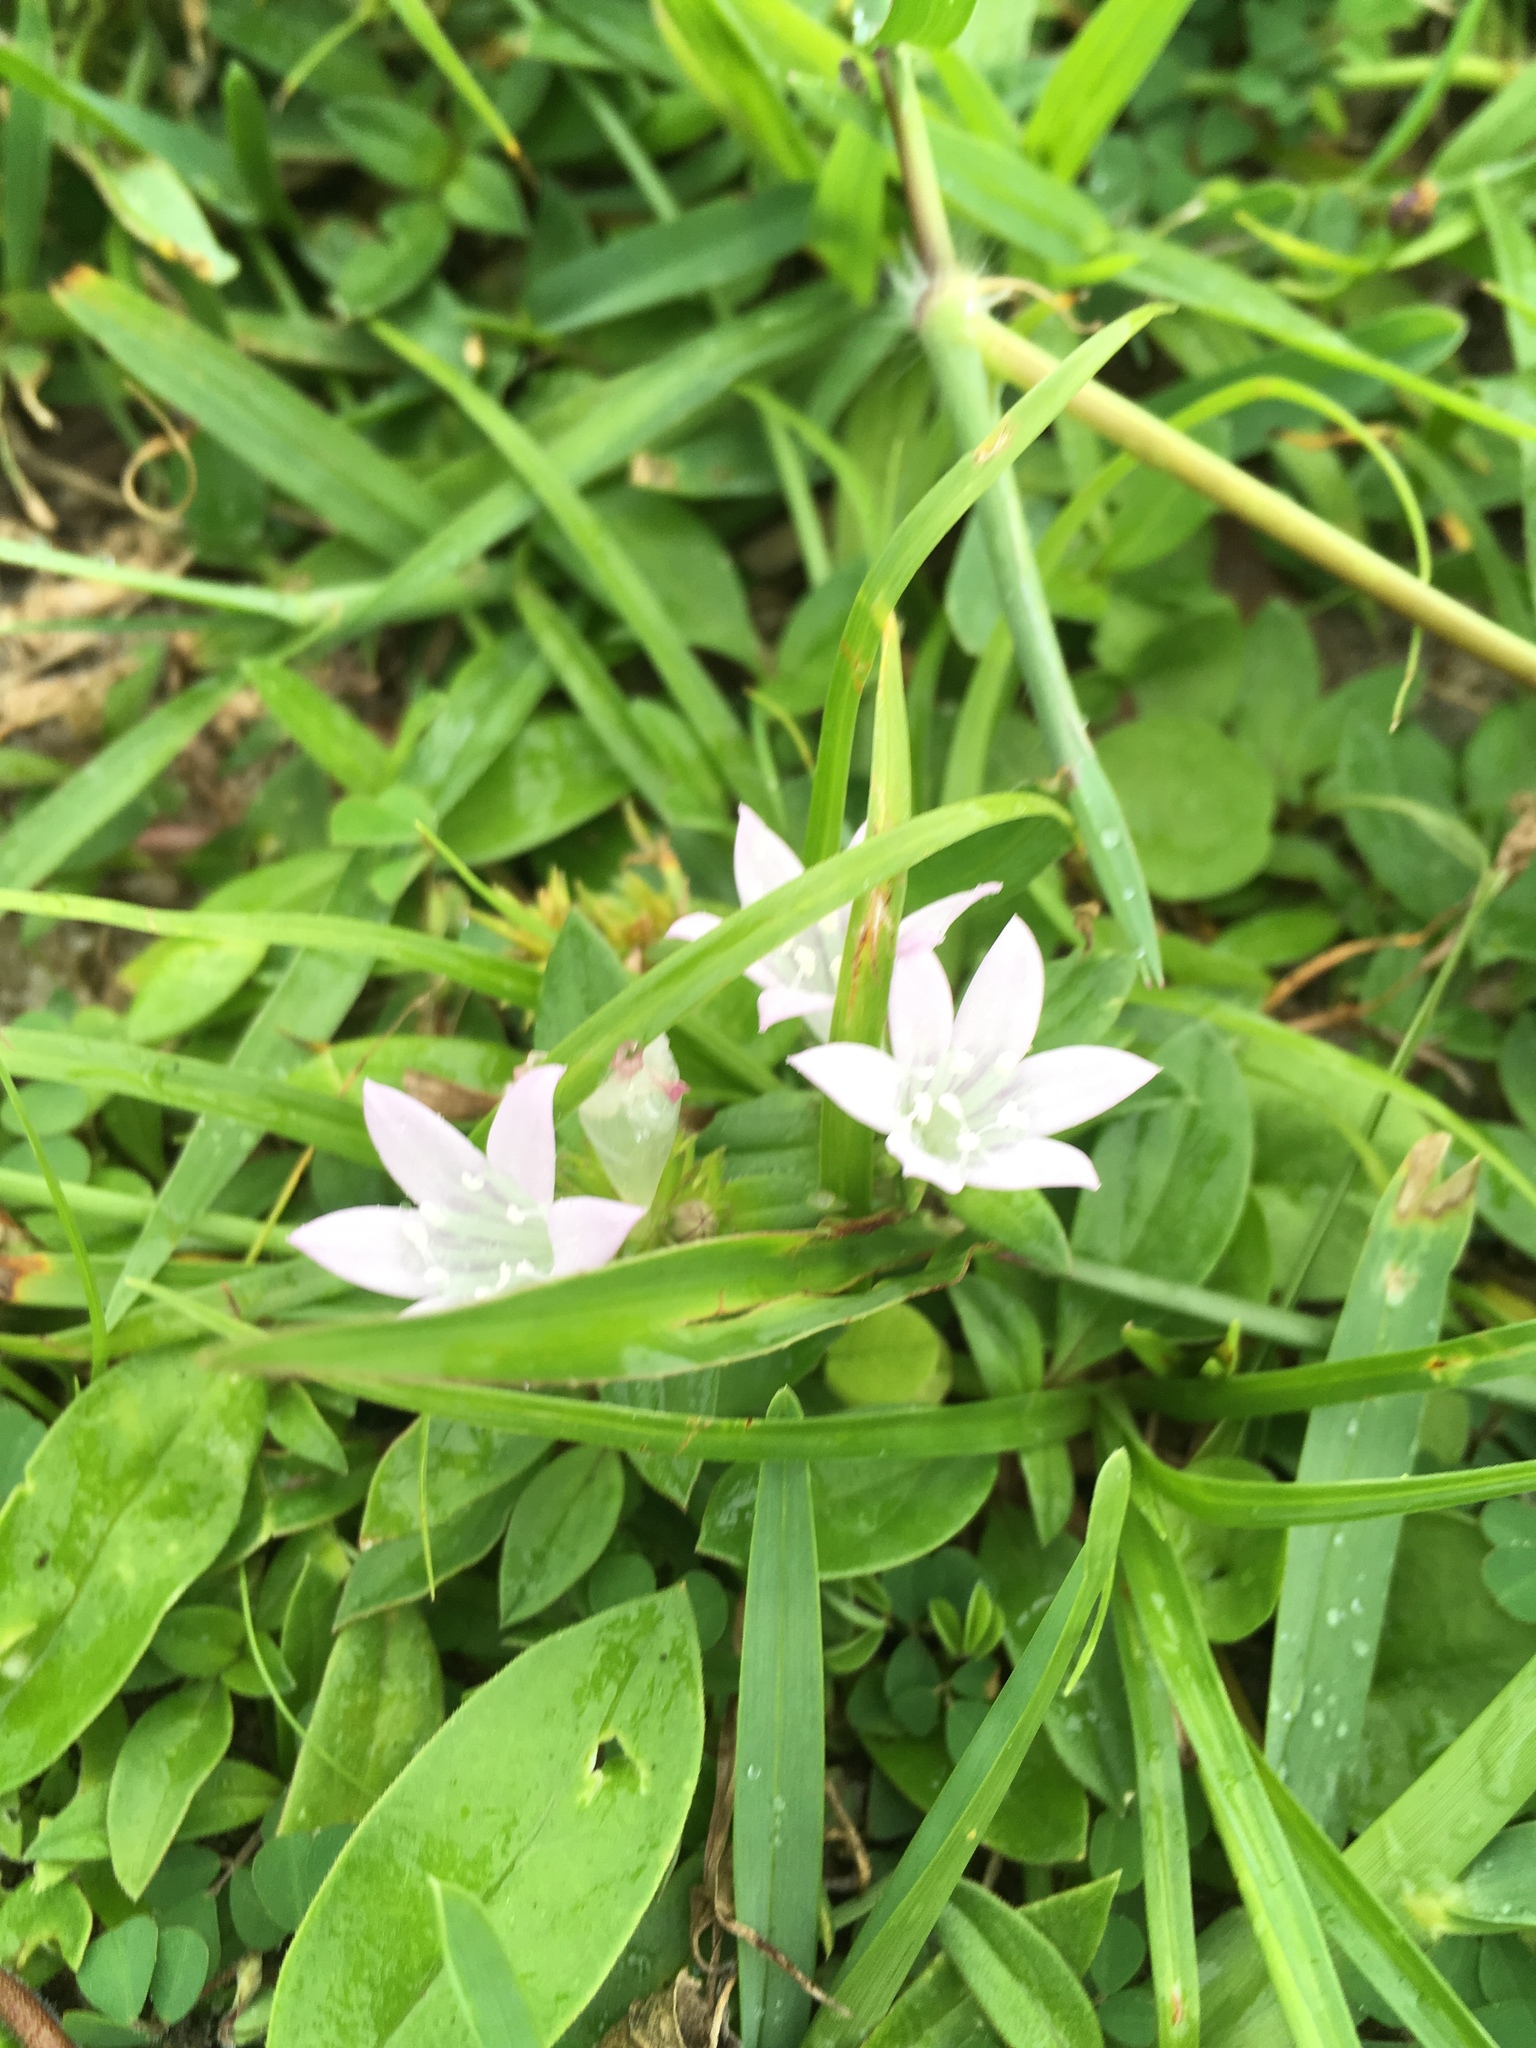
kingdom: Plantae
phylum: Tracheophyta
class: Magnoliopsida
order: Gentianales
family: Rubiaceae
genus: Richardia
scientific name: Richardia grandiflora
